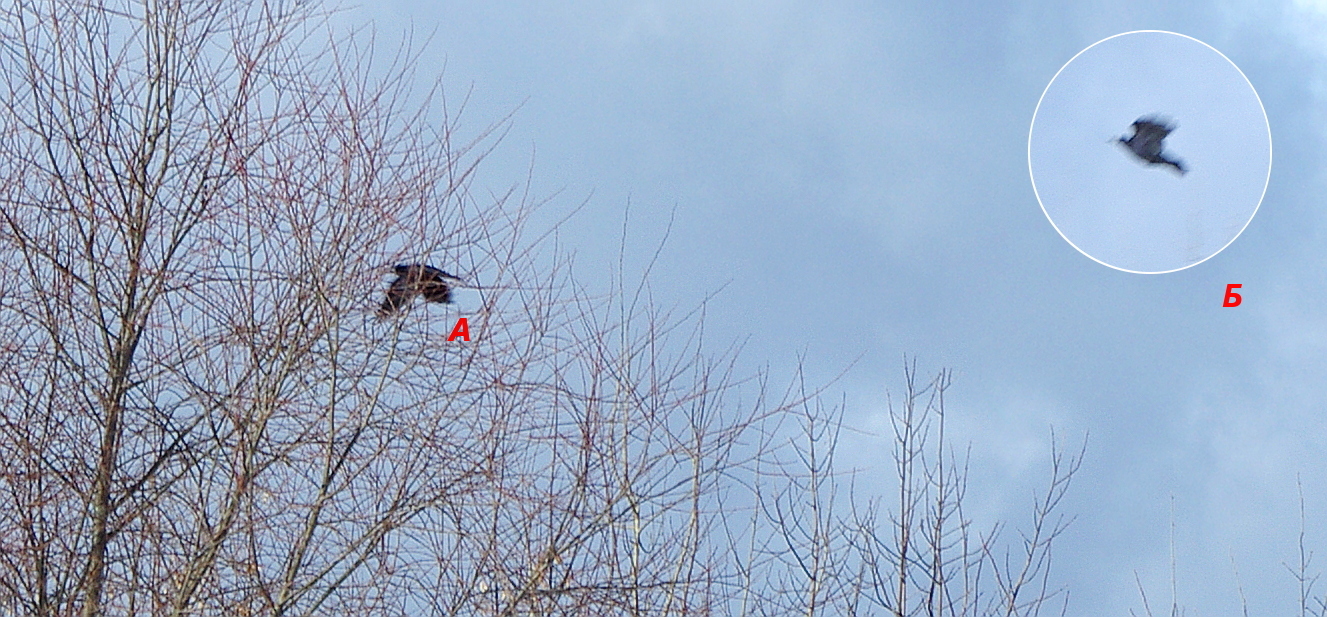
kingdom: Animalia
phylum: Chordata
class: Aves
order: Passeriformes
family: Corvidae
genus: Corvus
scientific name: Corvus frugilegus
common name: Rook
